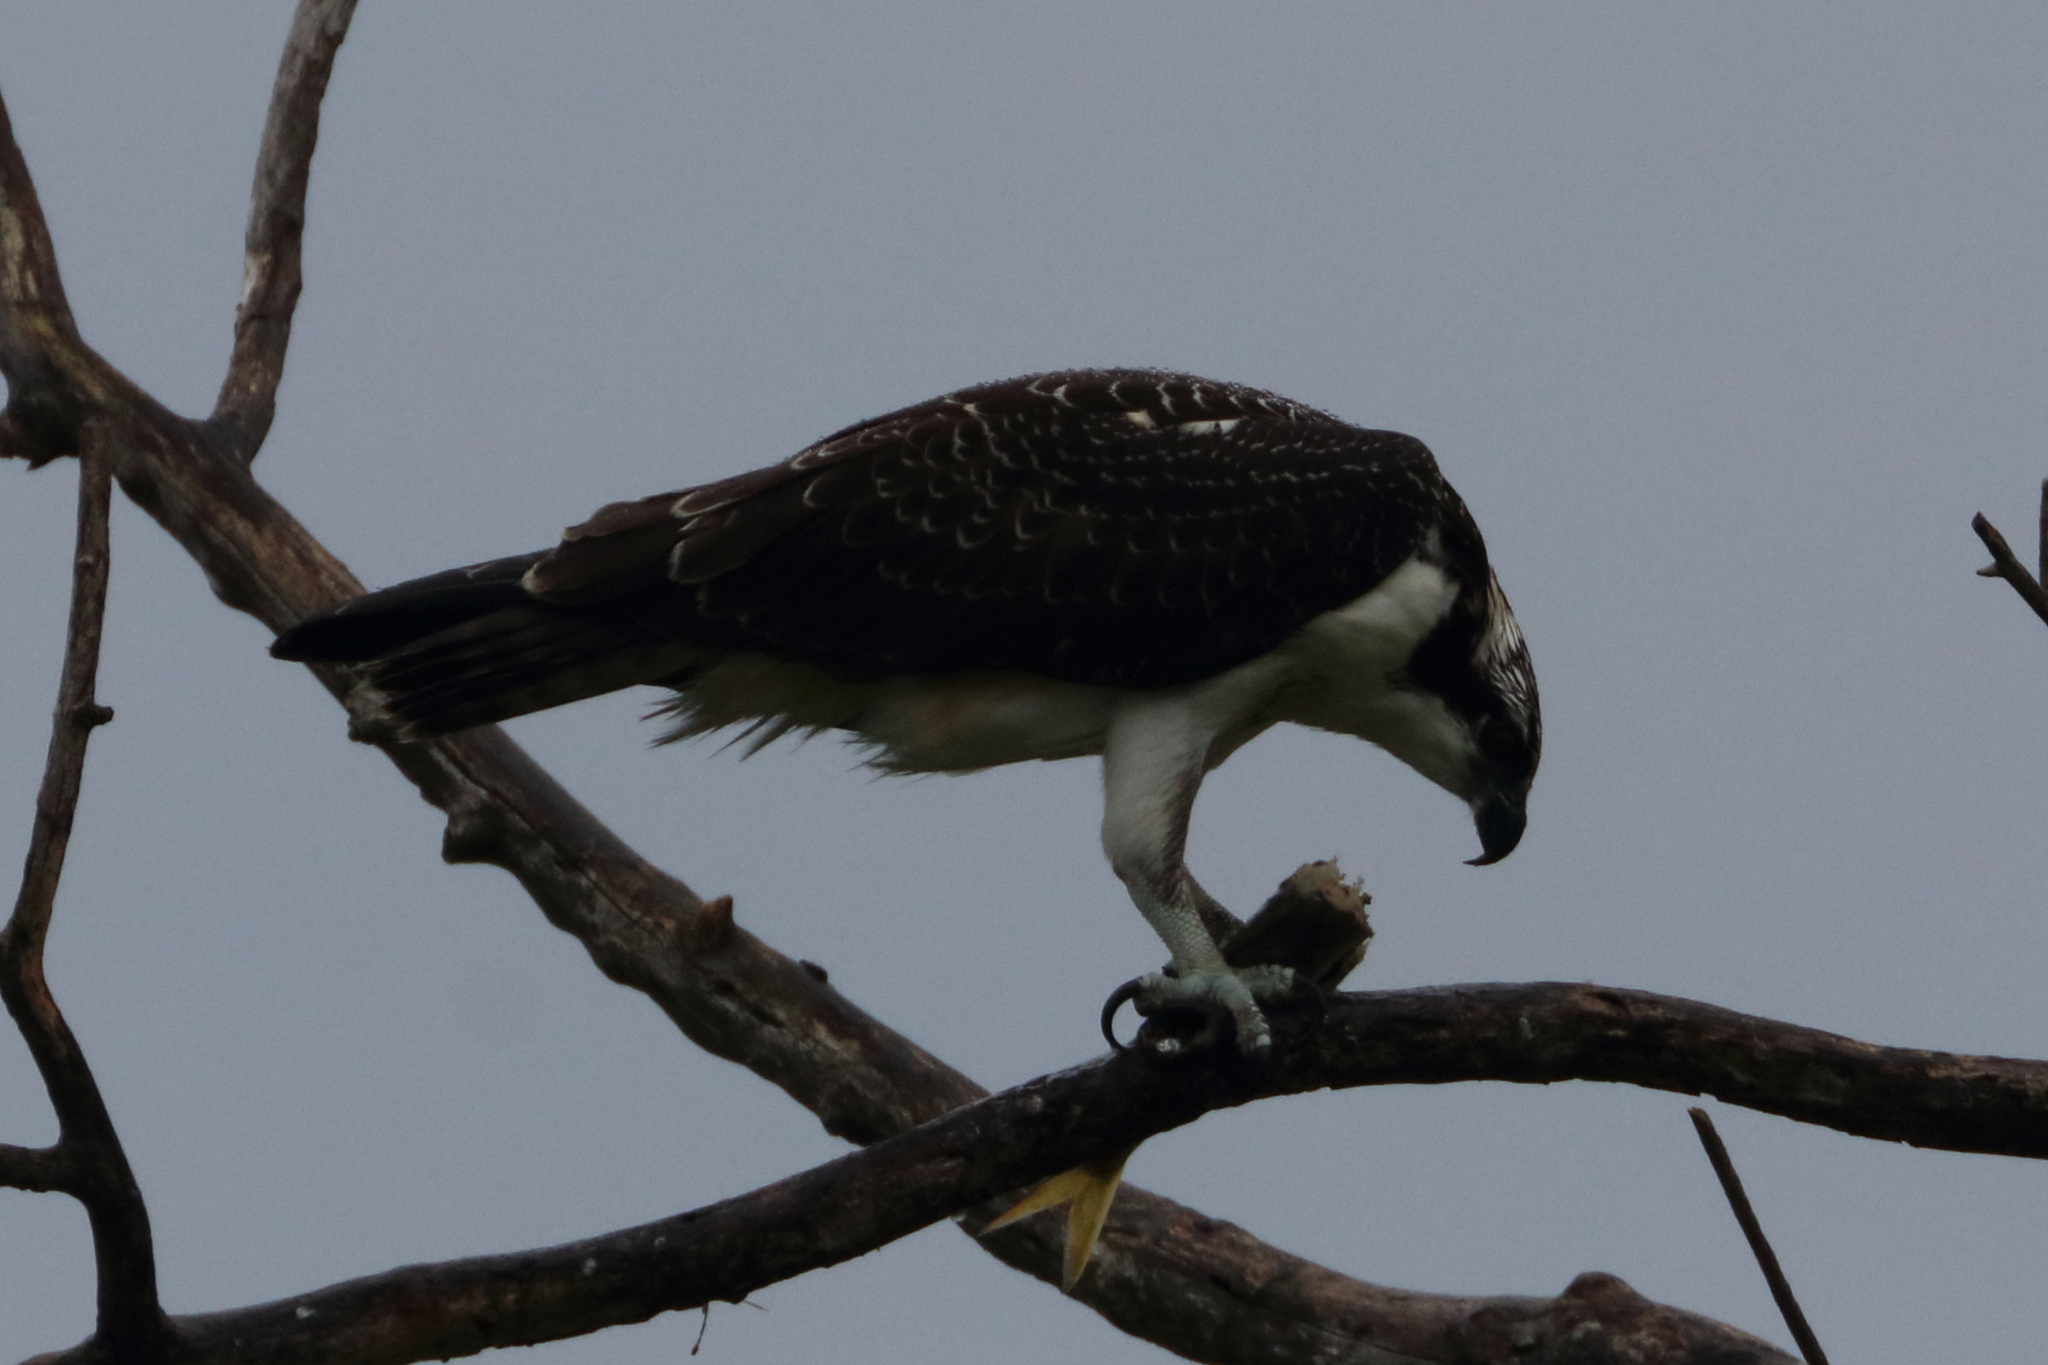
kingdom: Animalia
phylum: Chordata
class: Aves
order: Accipitriformes
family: Pandionidae
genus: Pandion
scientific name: Pandion haliaetus
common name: Osprey
